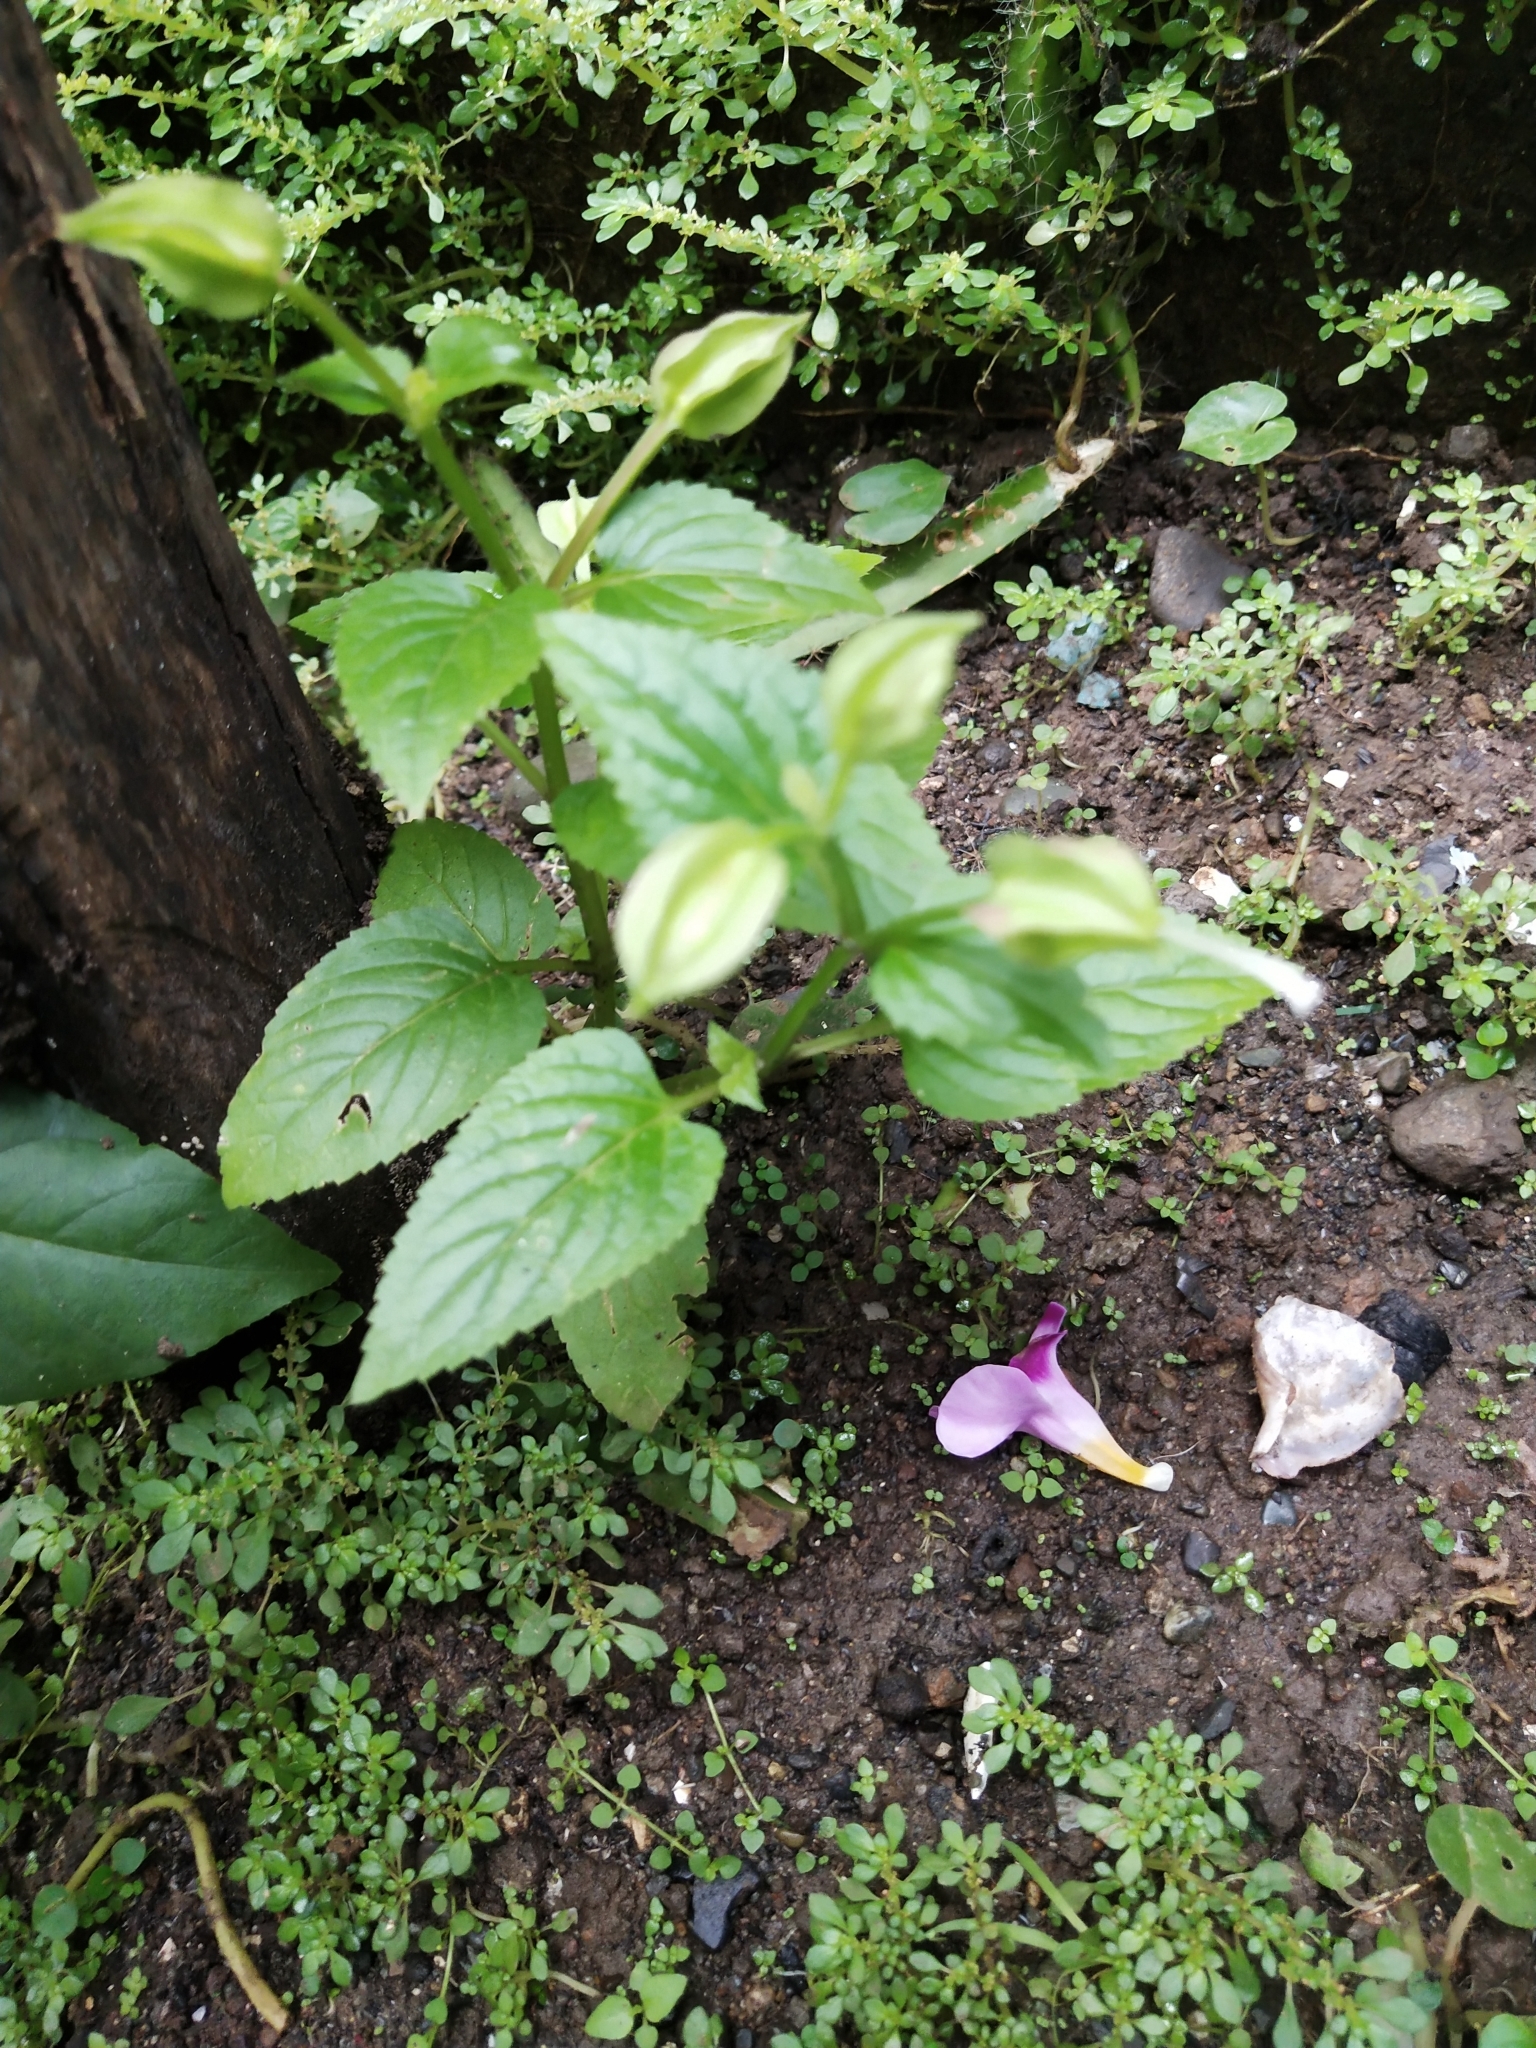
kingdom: Plantae
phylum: Tracheophyta
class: Magnoliopsida
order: Lamiales
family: Linderniaceae
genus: Torenia
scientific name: Torenia fournieri
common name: Bluewings
